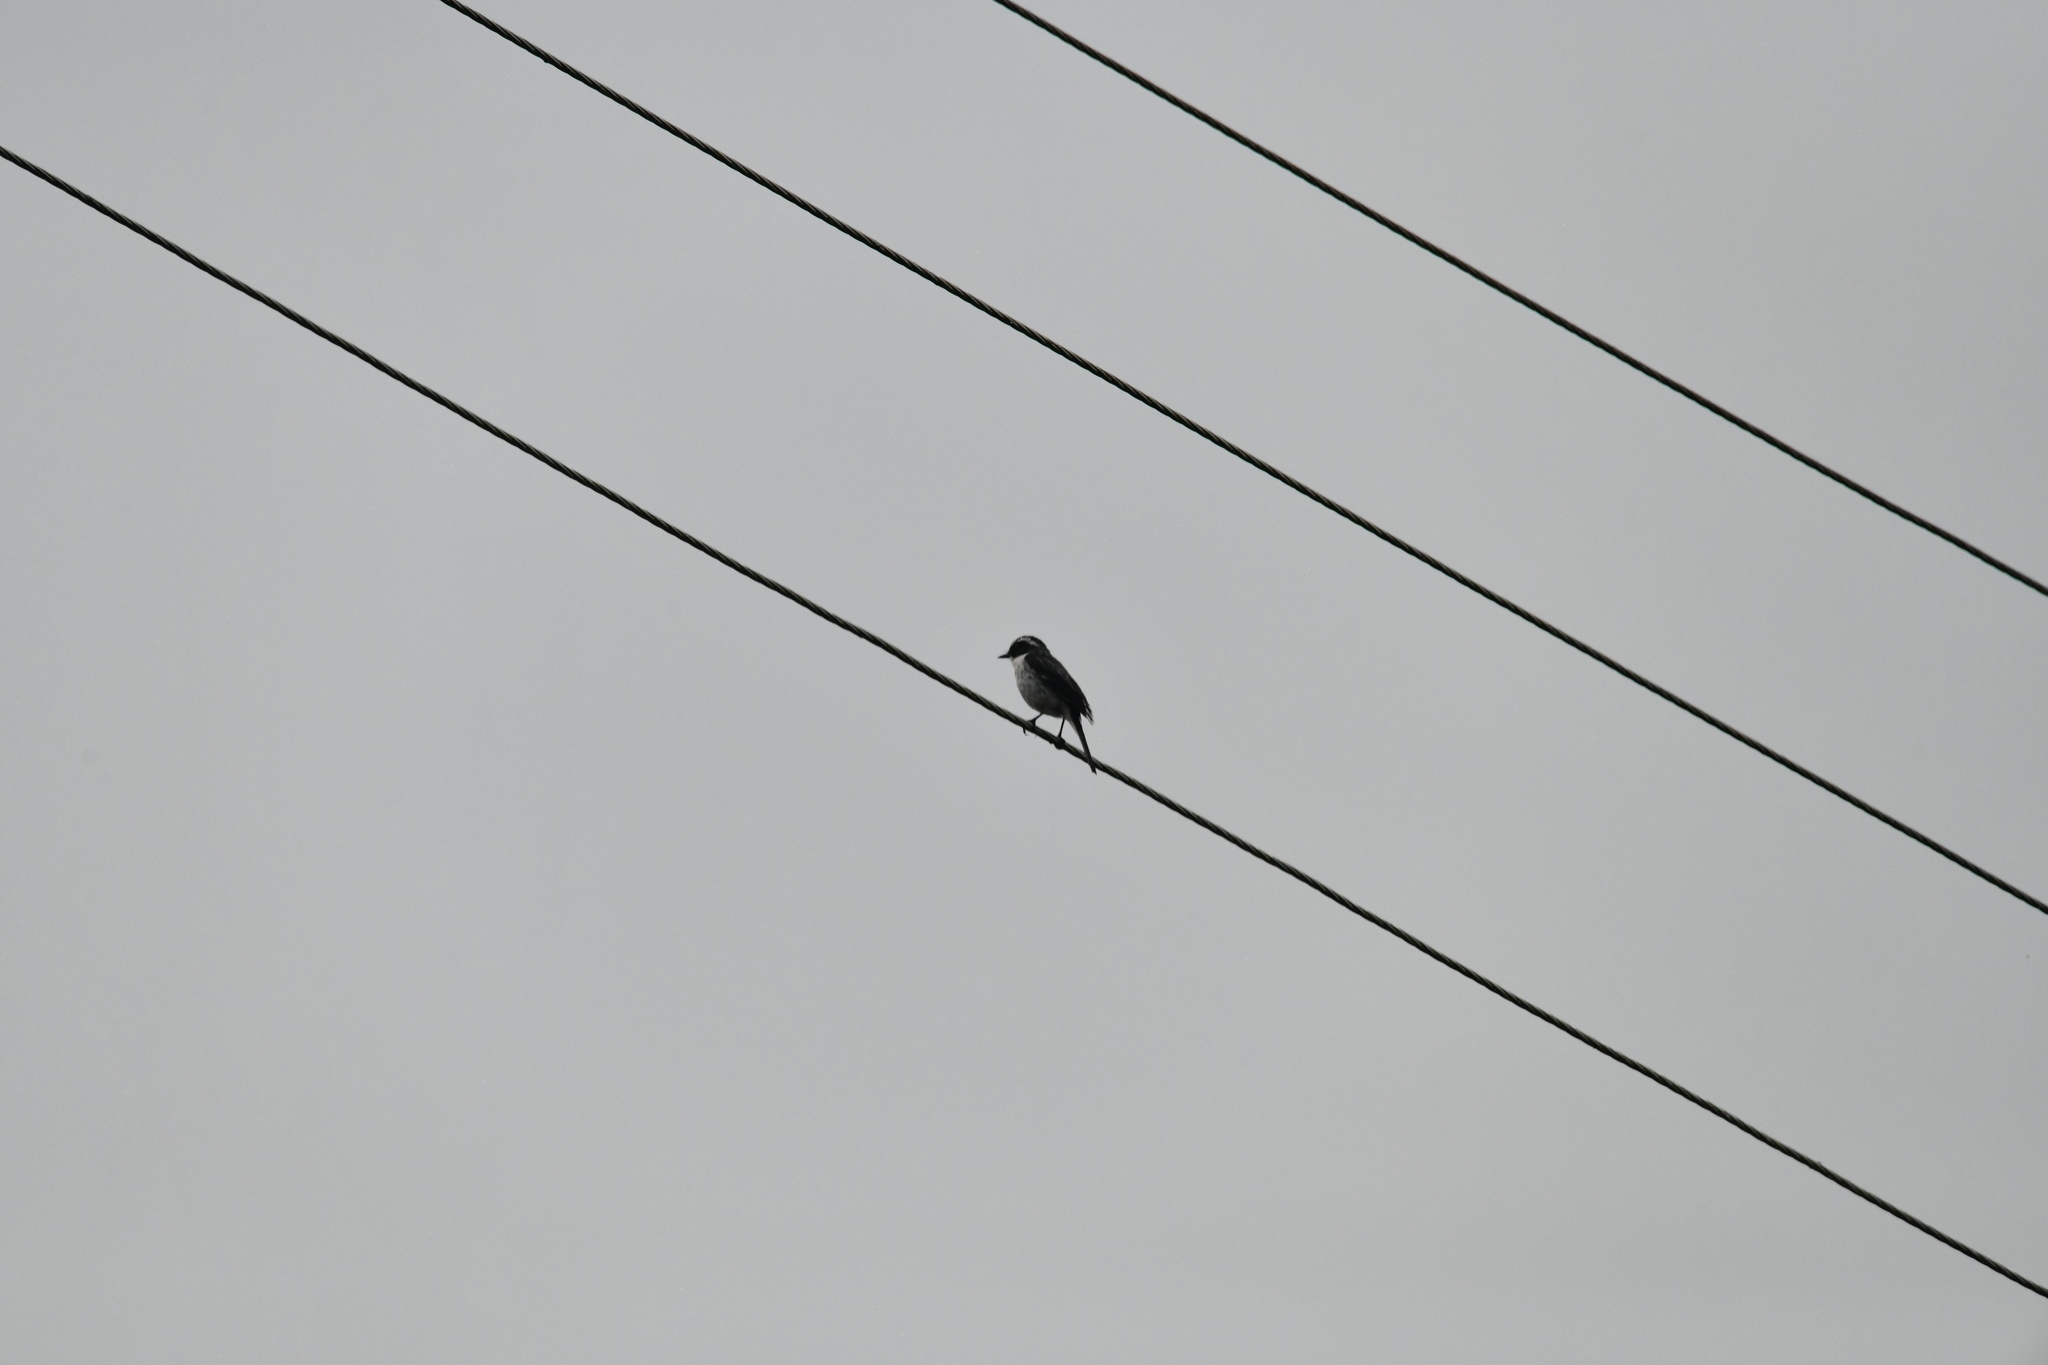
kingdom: Animalia
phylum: Chordata
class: Aves
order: Passeriformes
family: Muscicapidae
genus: Saxicola
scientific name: Saxicola ferreus
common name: Grey bush chat
